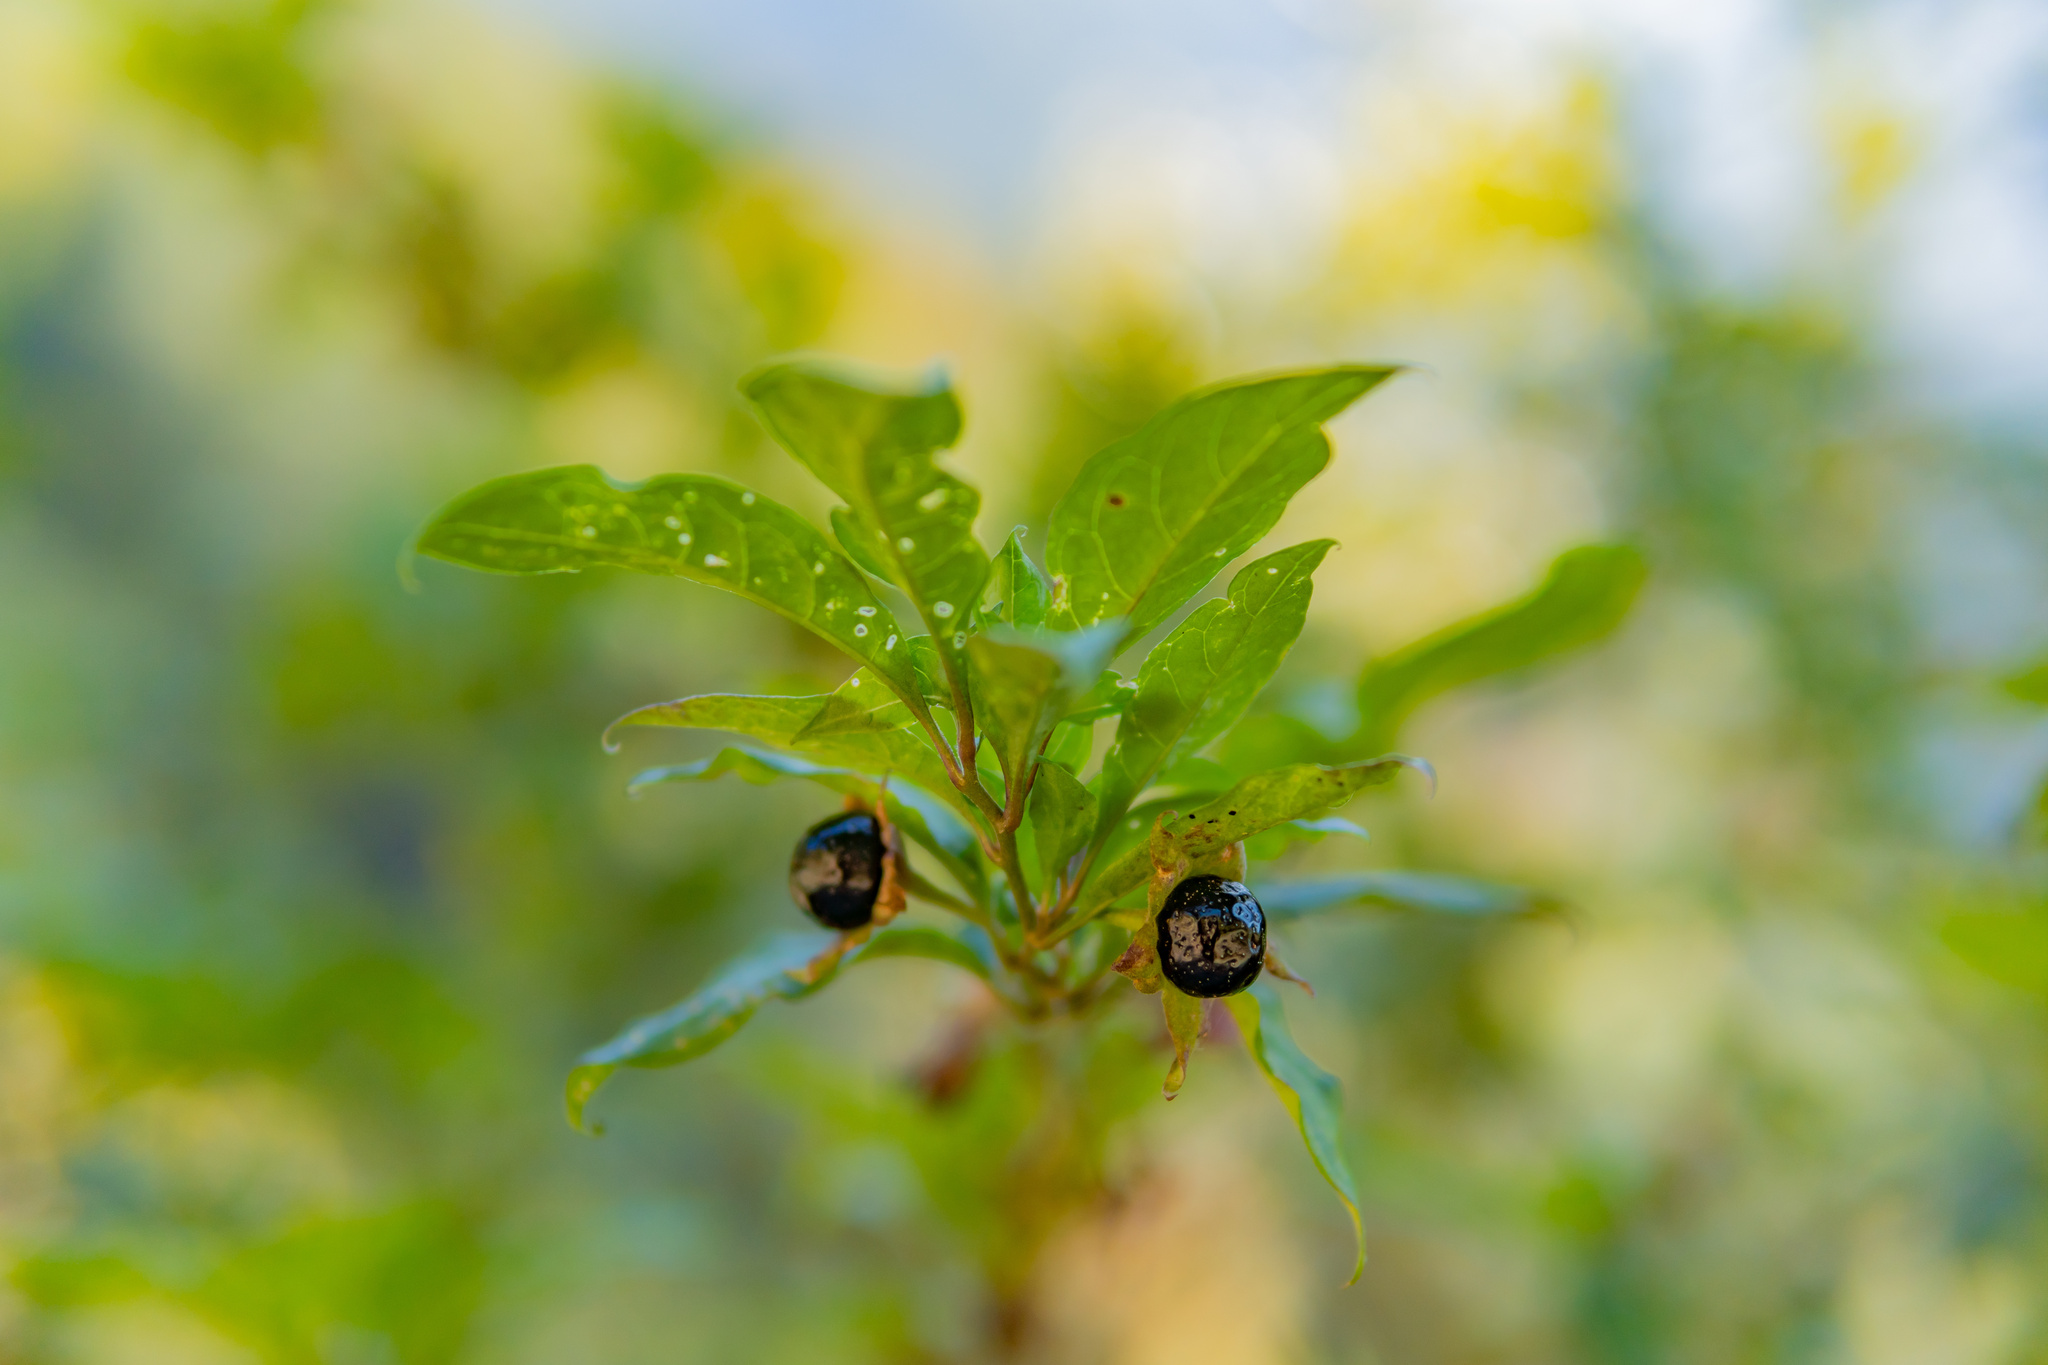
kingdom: Plantae
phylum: Tracheophyta
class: Magnoliopsida
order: Solanales
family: Solanaceae
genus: Atropa
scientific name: Atropa belladonna
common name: Deadly nightshade
